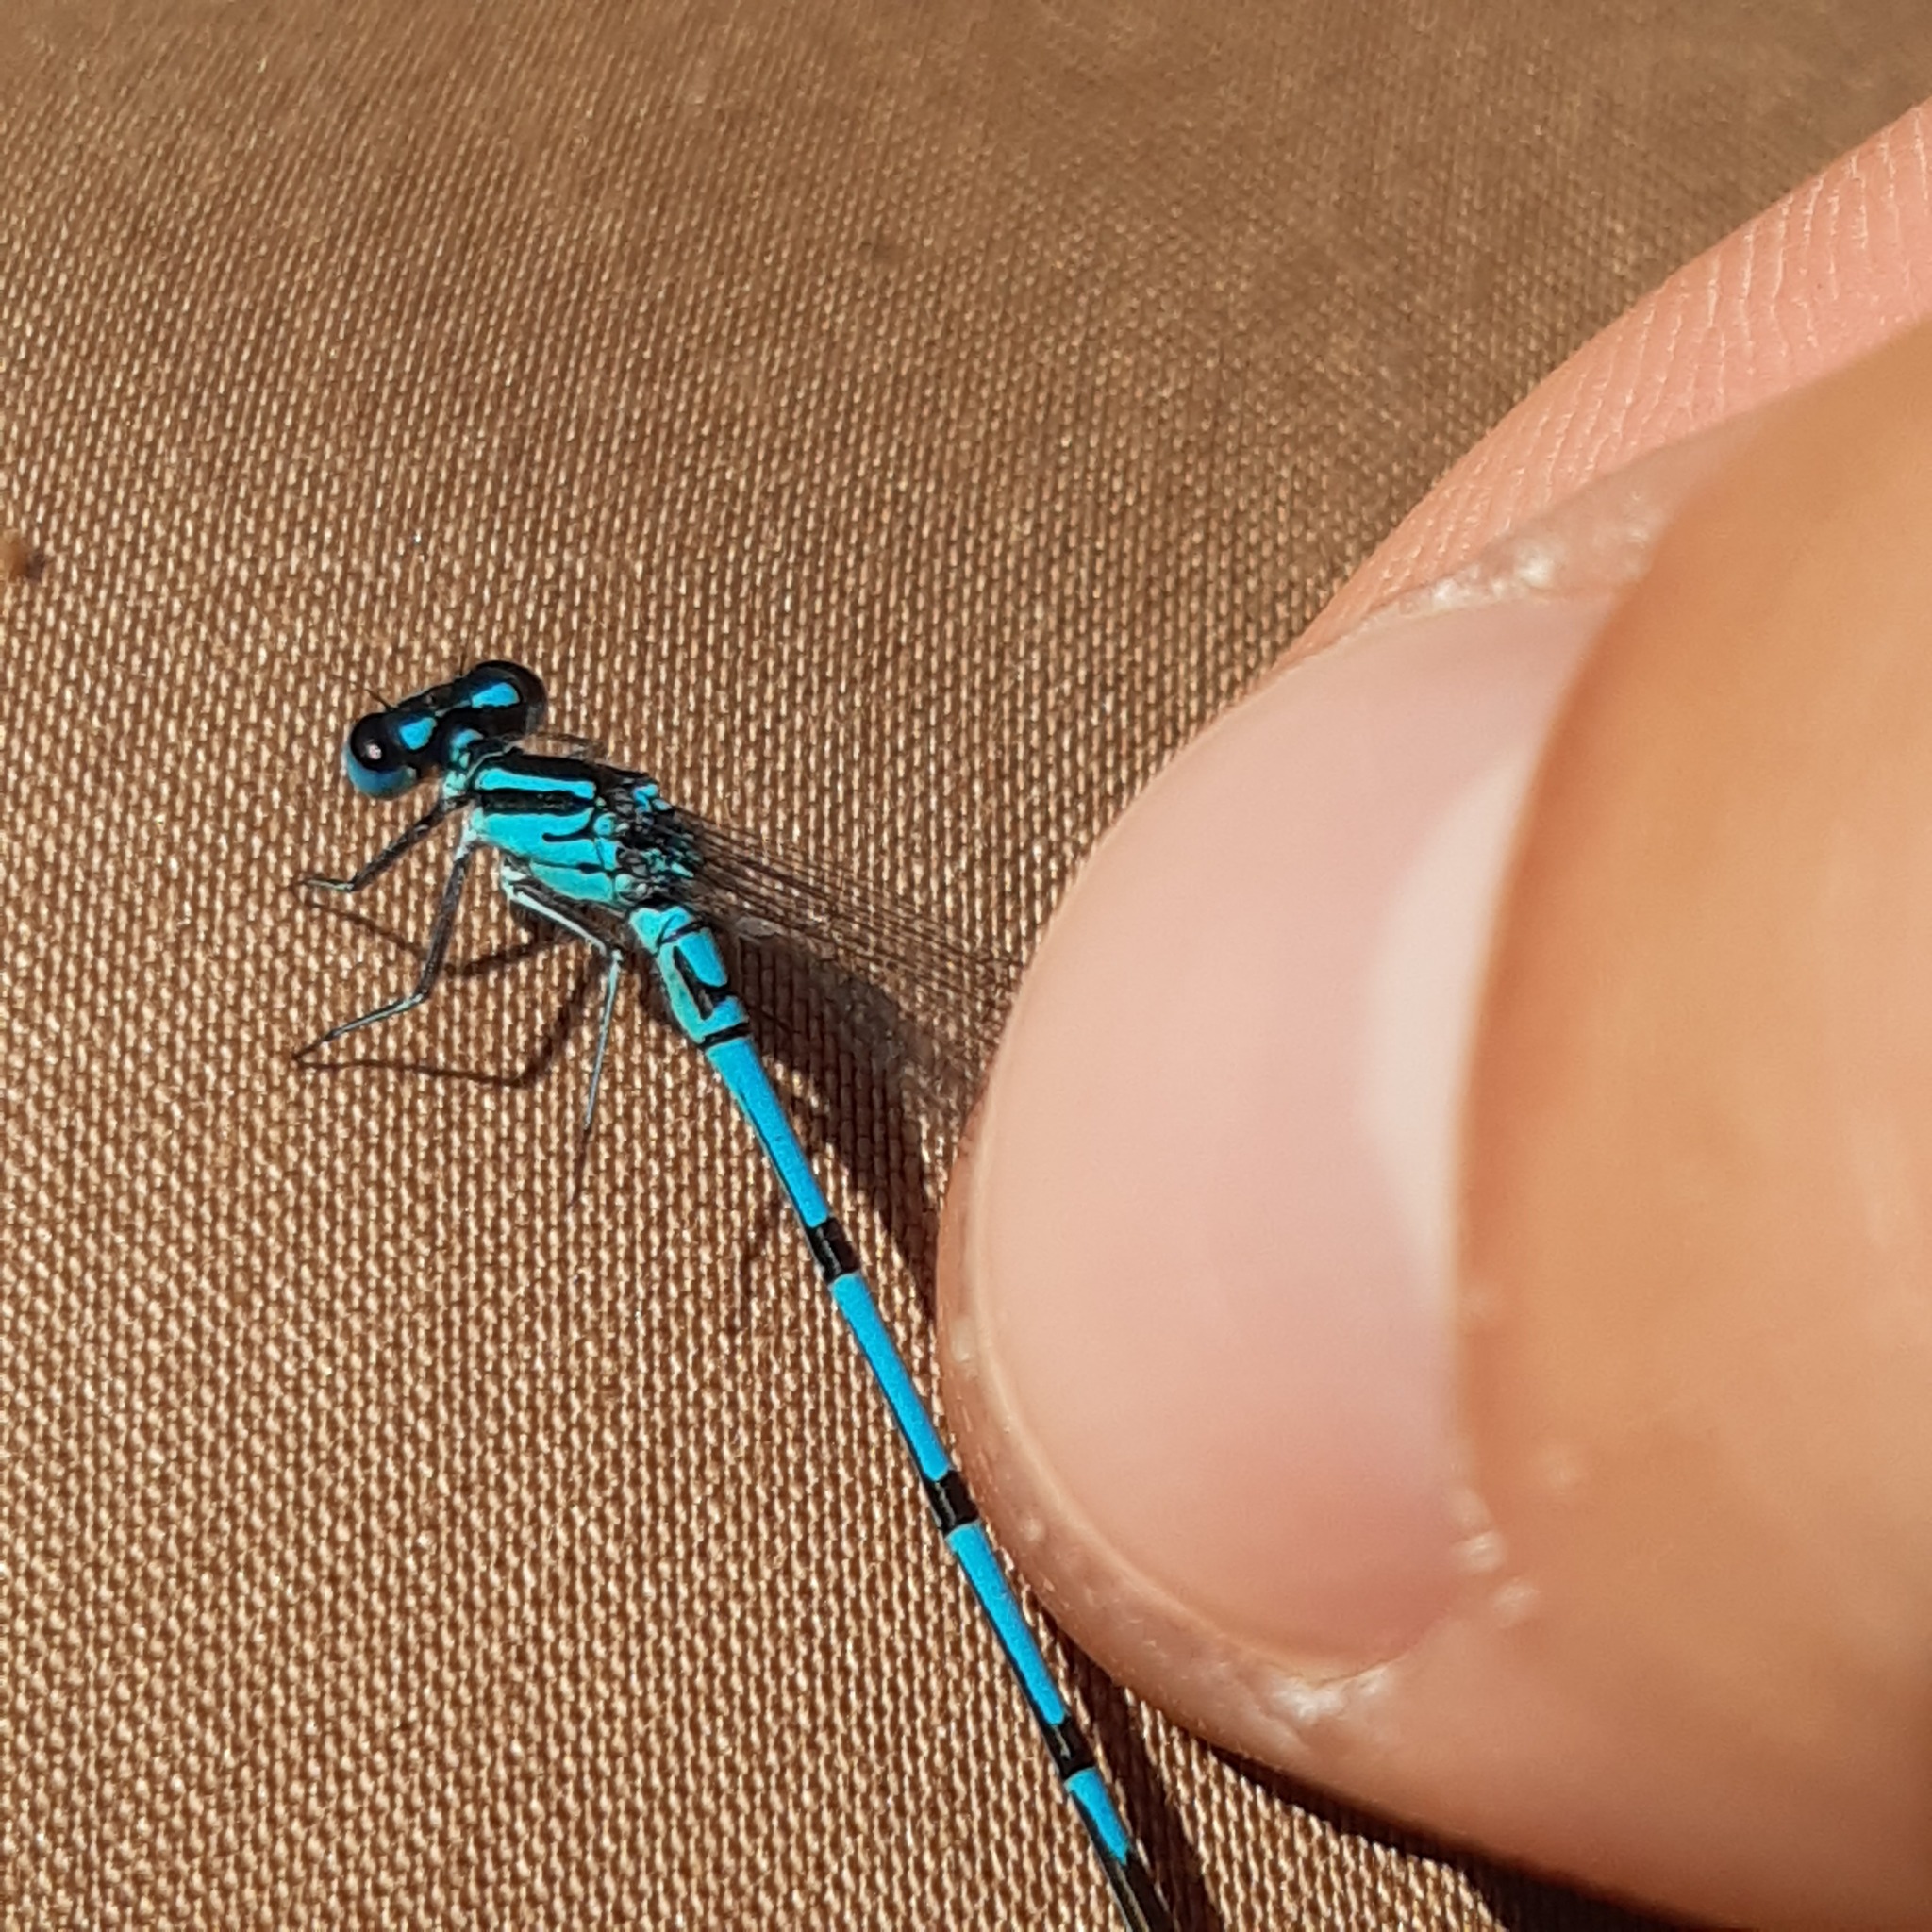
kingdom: Animalia
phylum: Arthropoda
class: Insecta
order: Odonata
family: Coenagrionidae
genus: Coenagrion
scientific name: Coenagrion puella
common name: Azure damselfly
